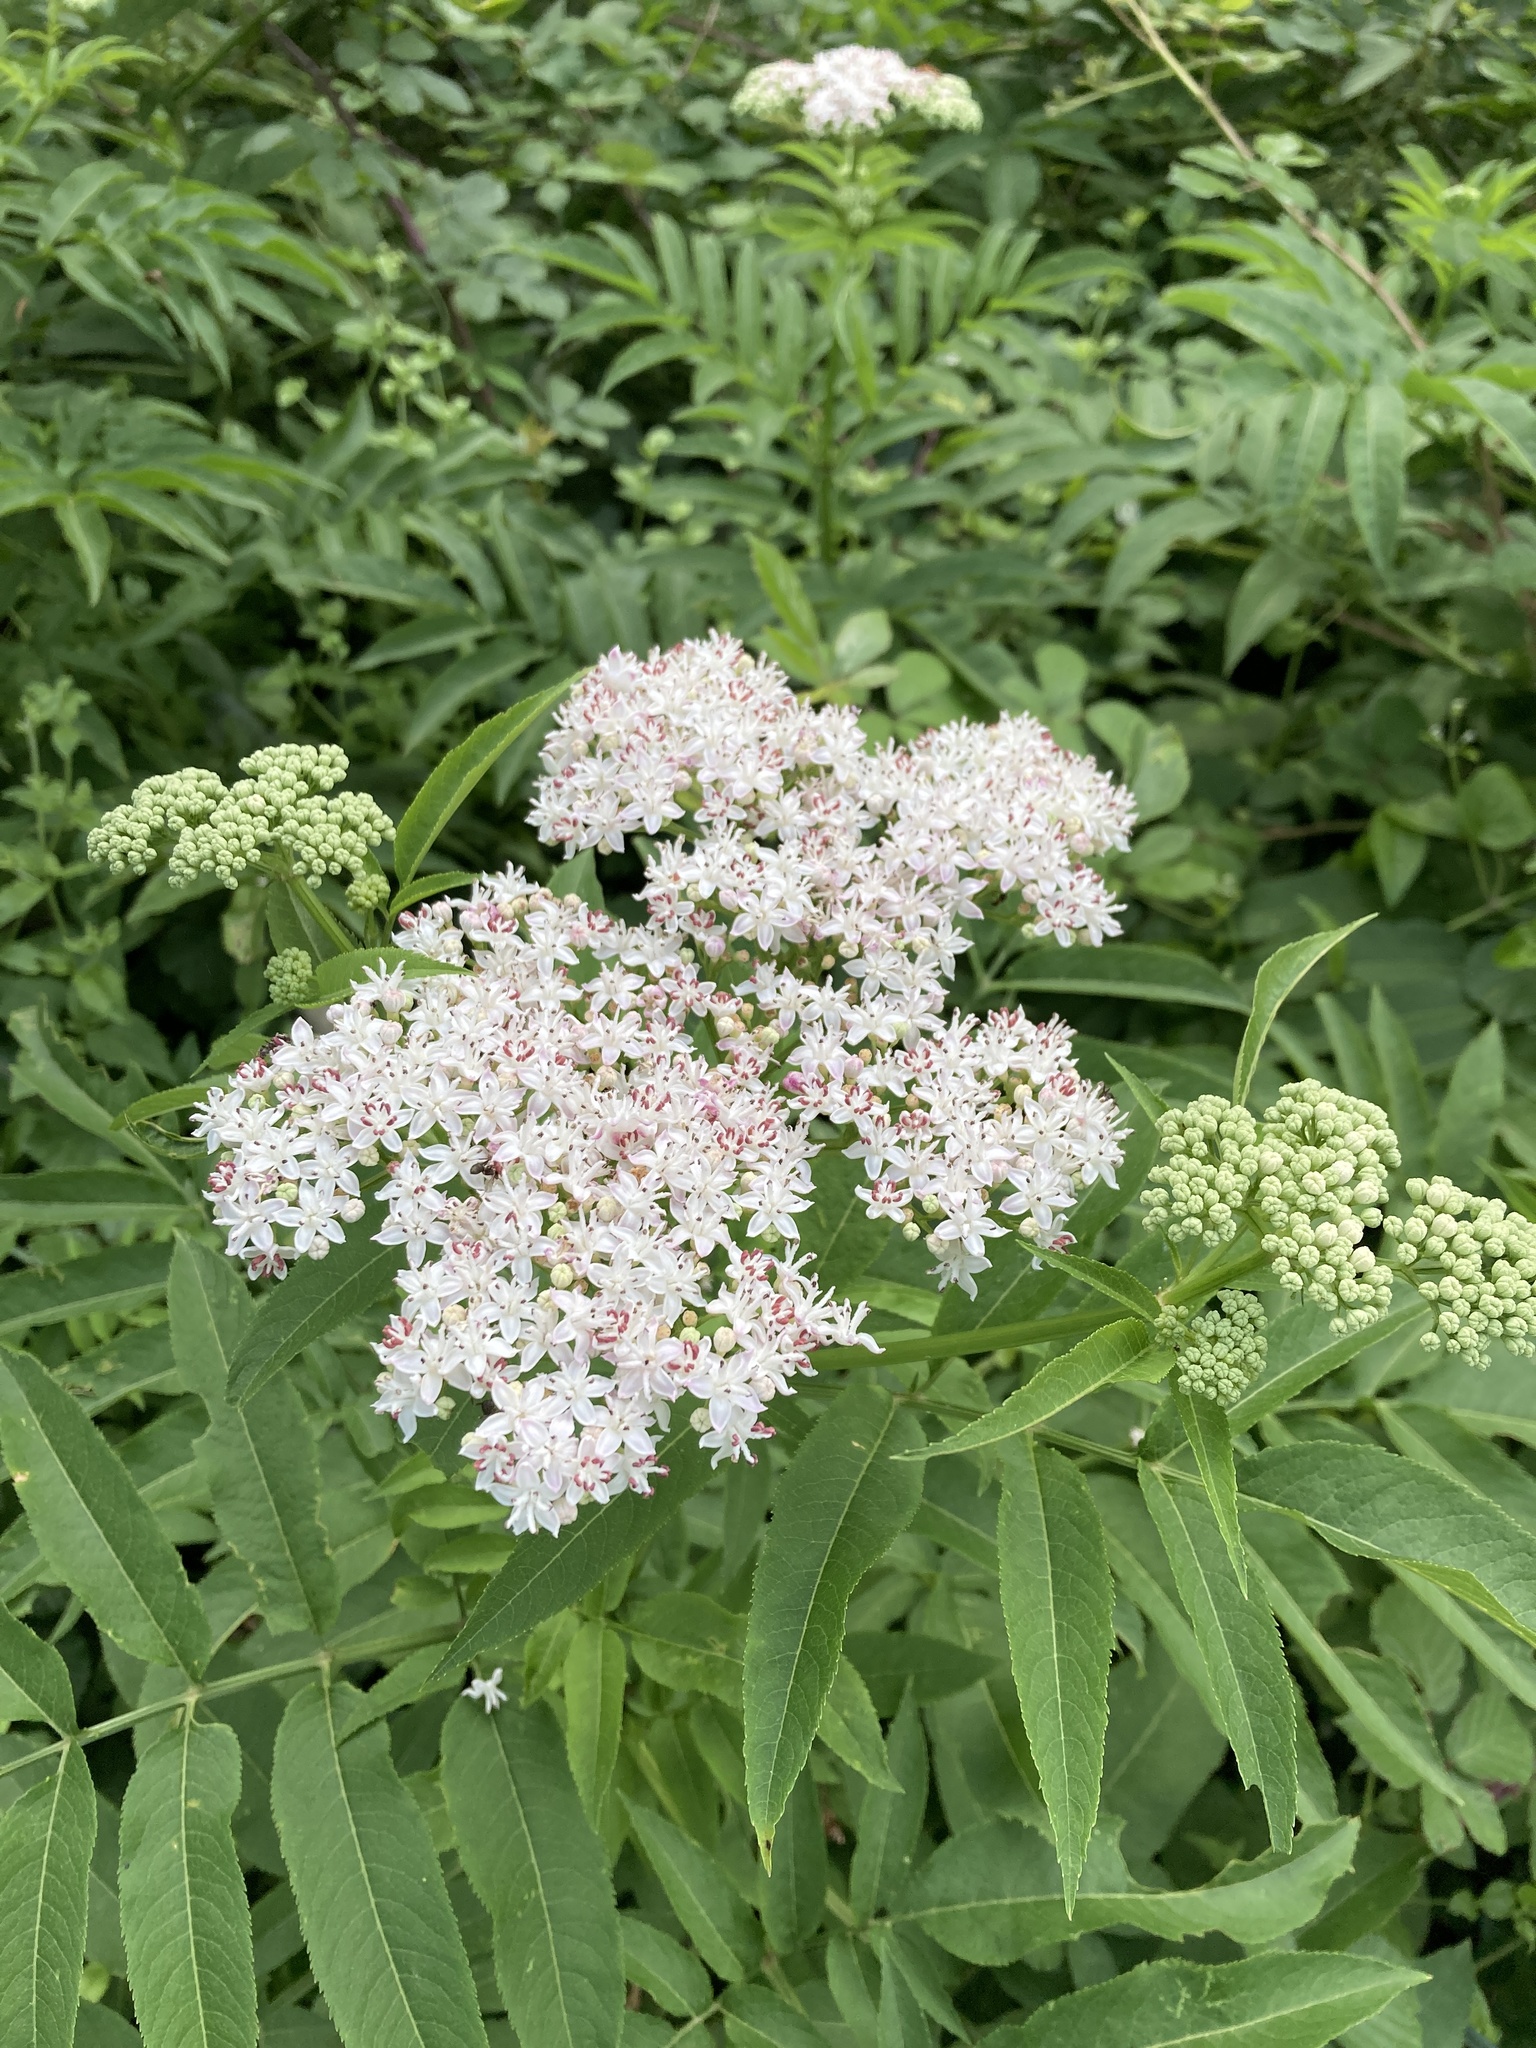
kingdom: Plantae
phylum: Tracheophyta
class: Magnoliopsida
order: Dipsacales
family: Viburnaceae
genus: Sambucus
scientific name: Sambucus ebulus
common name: Dwarf elder
